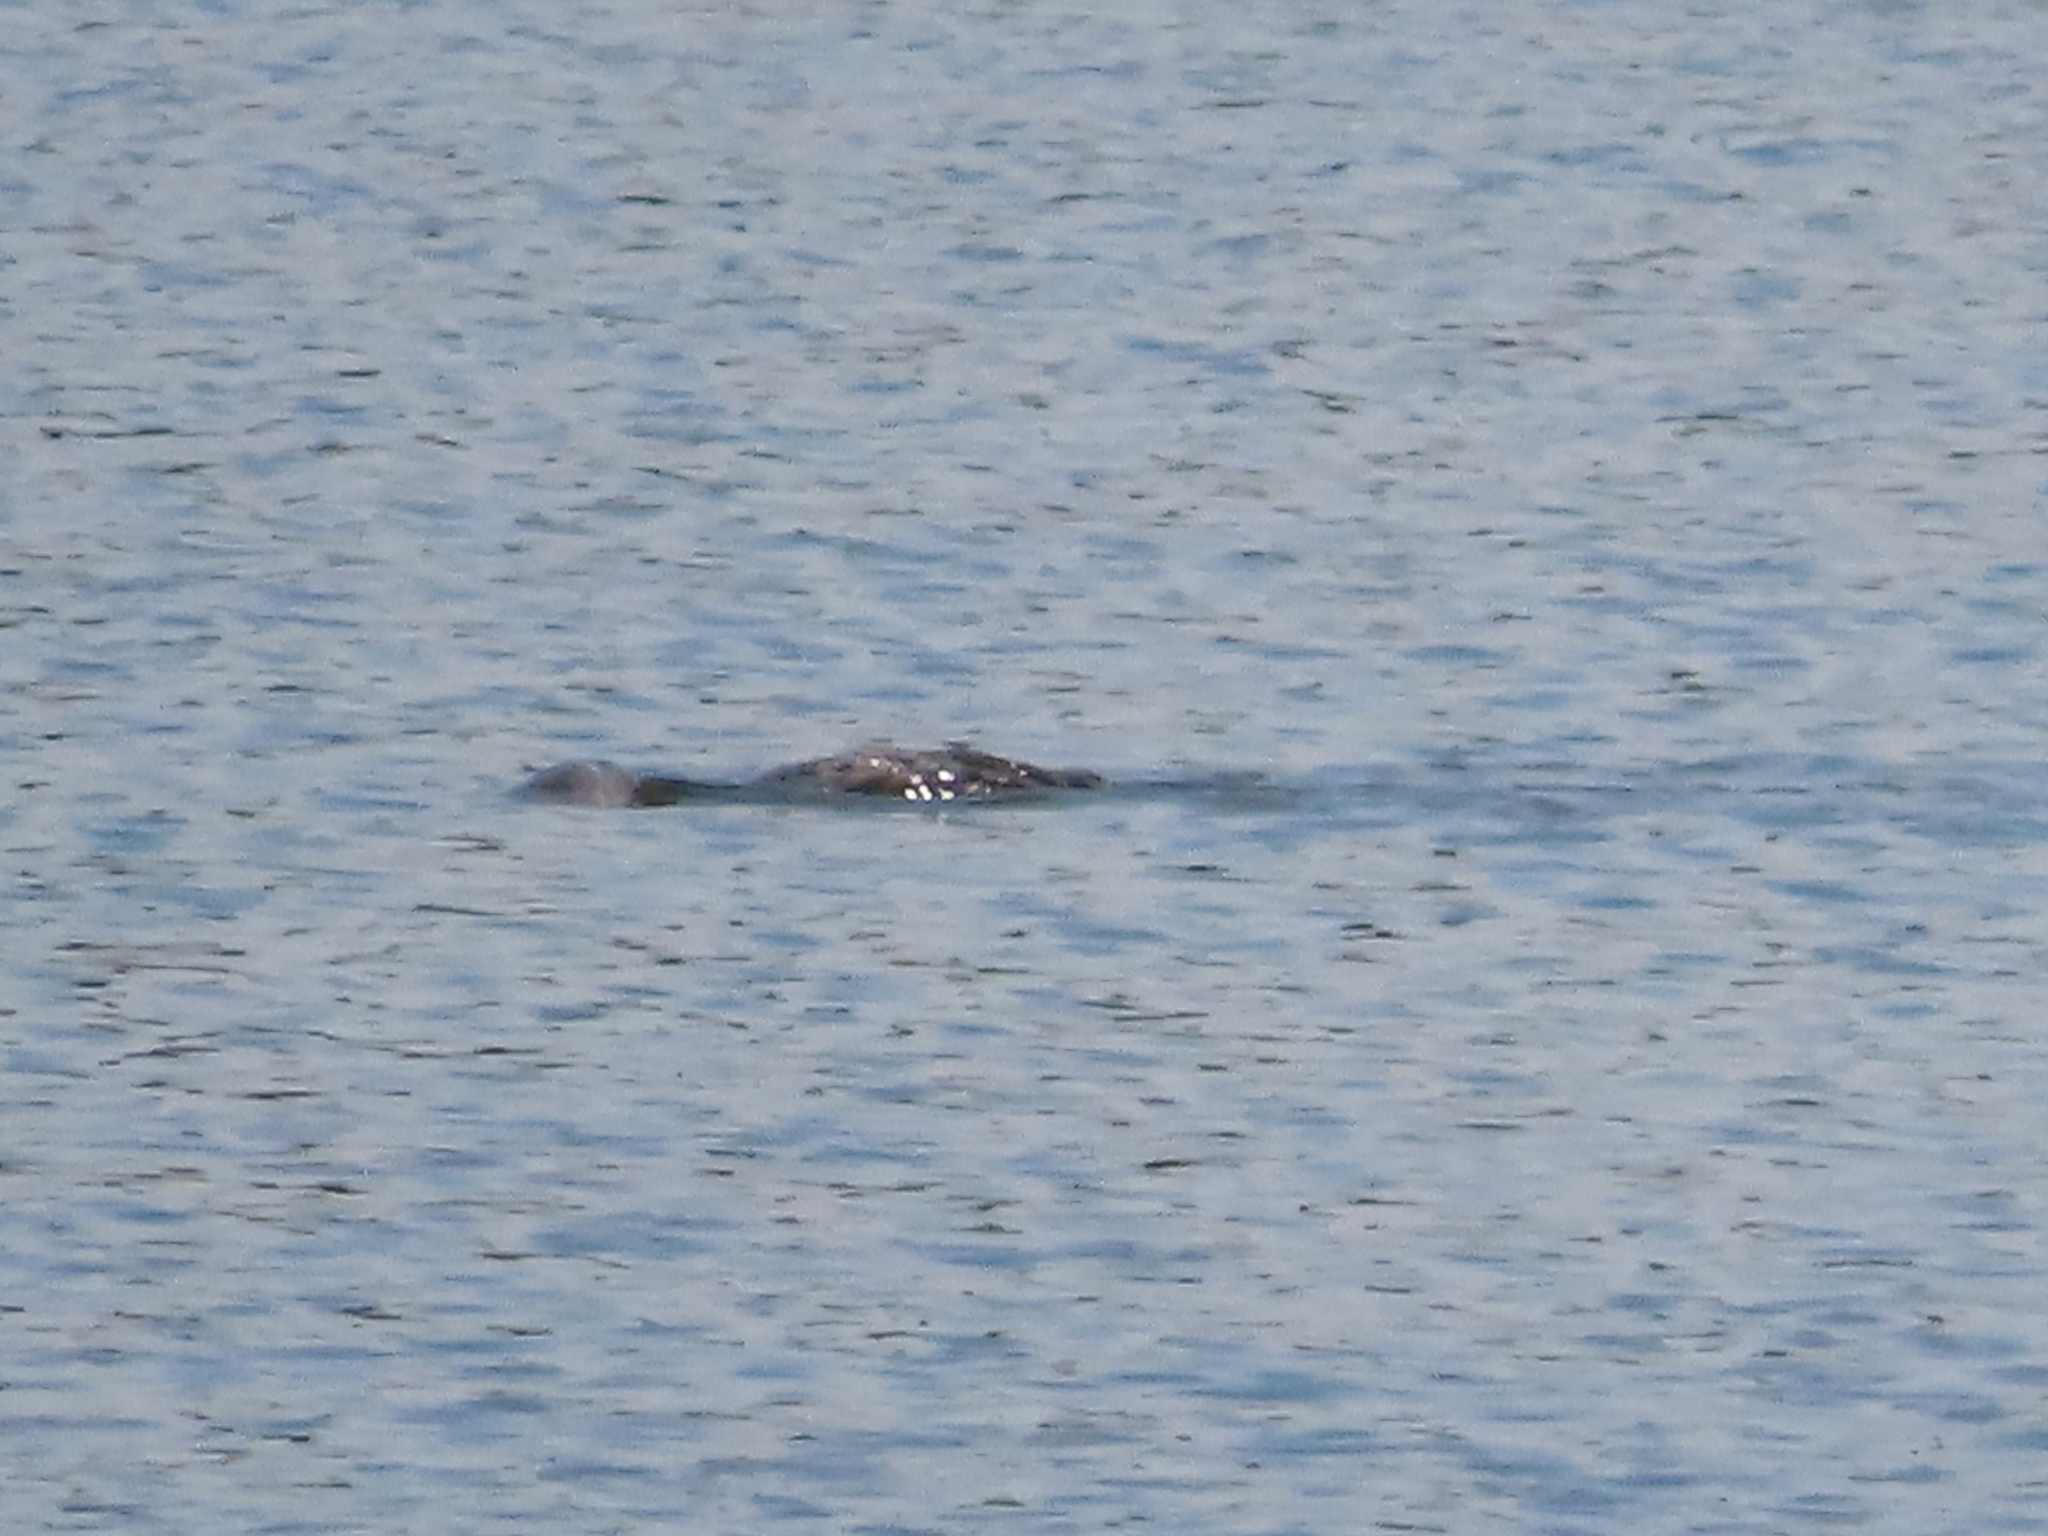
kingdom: Animalia
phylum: Chordata
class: Aves
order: Suliformes
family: Phalacrocoracidae
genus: Phalacrocorax
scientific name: Phalacrocorax auritus
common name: Double-crested cormorant
